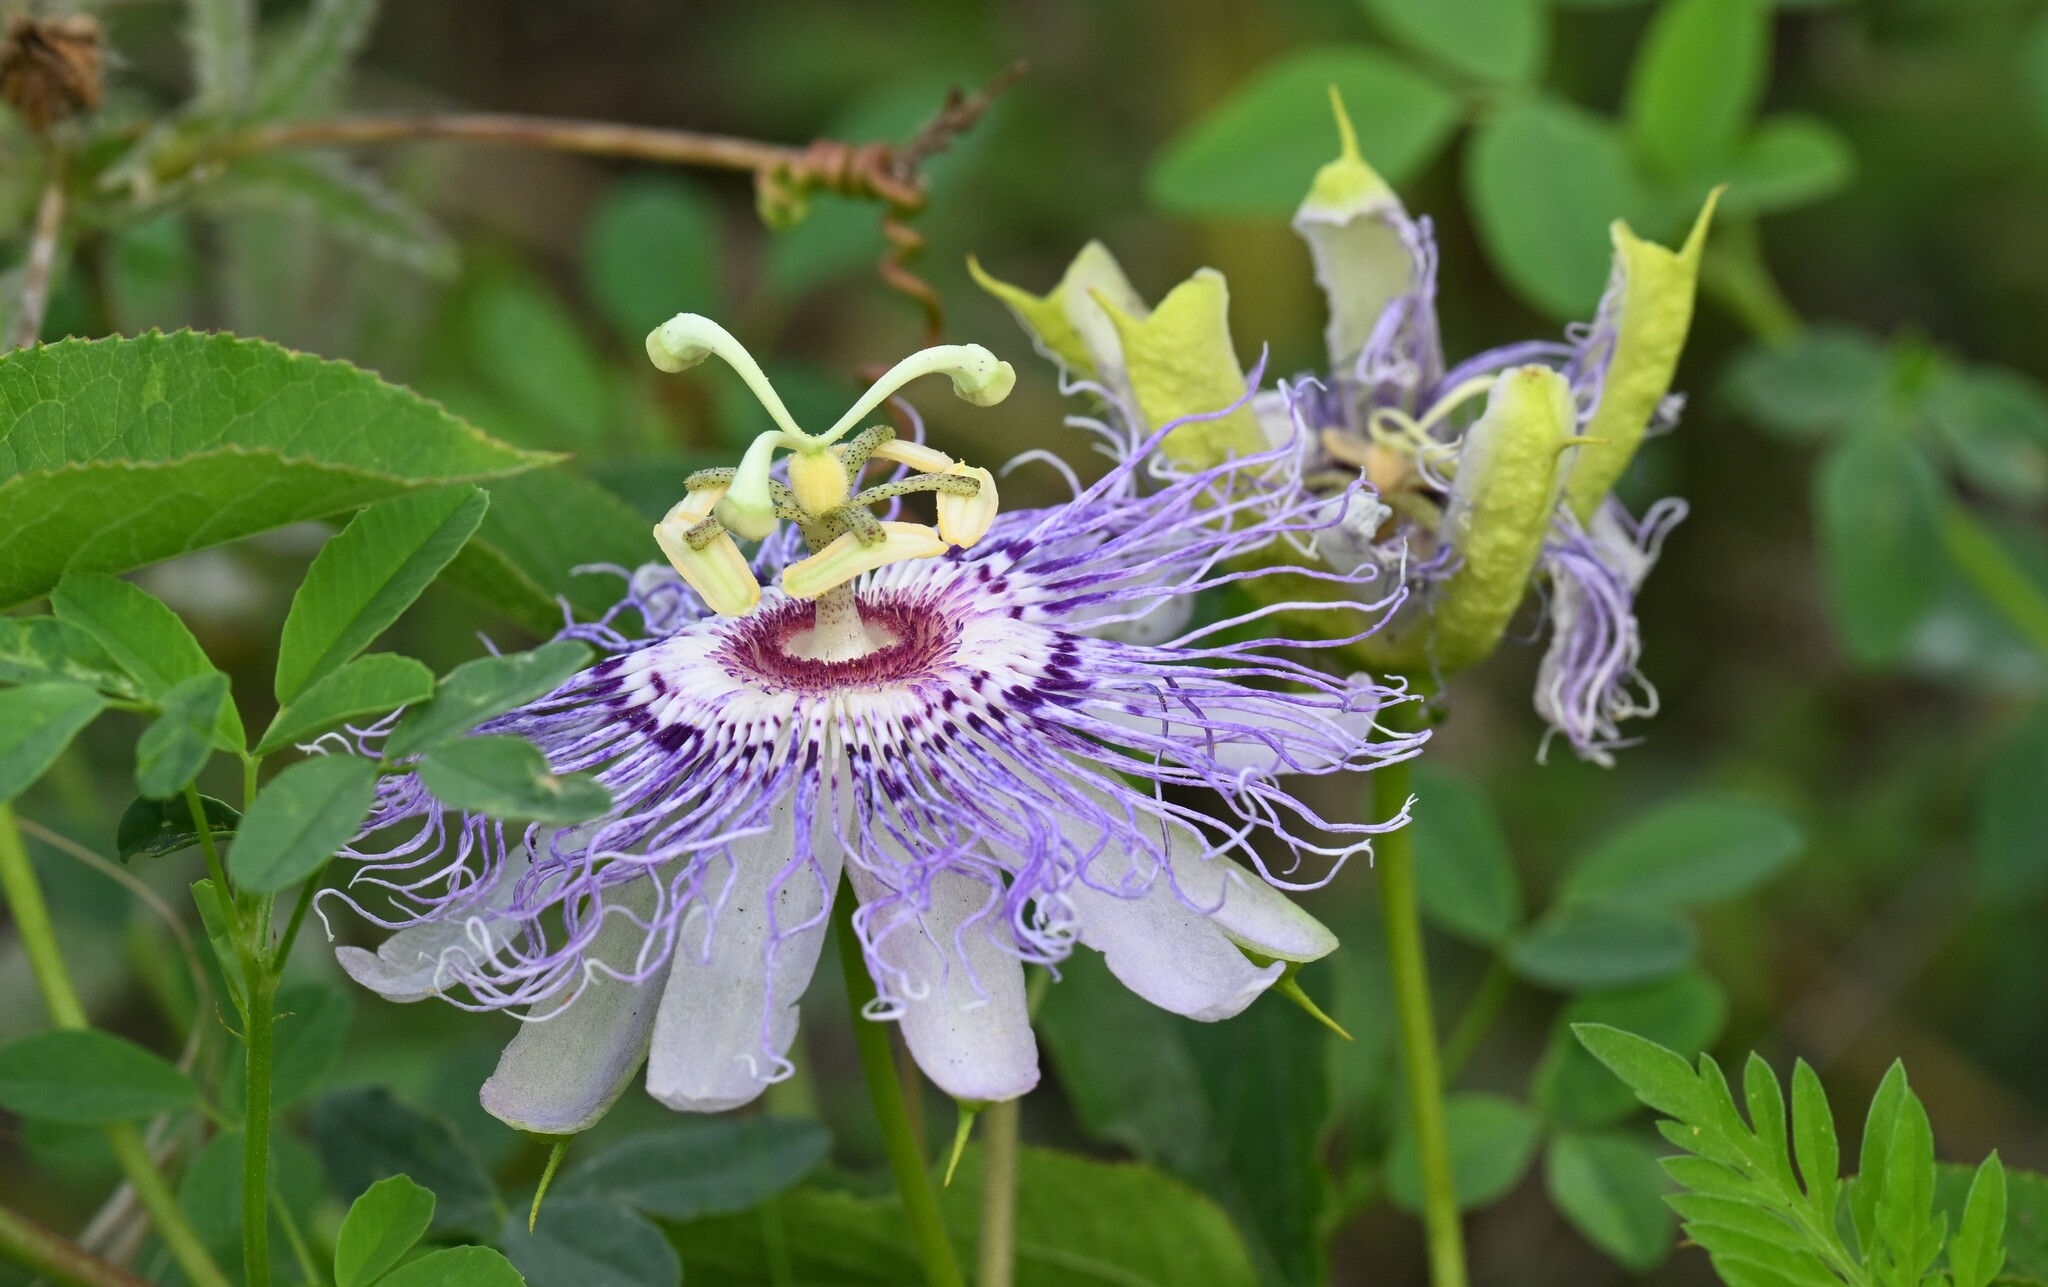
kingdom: Plantae
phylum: Tracheophyta
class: Magnoliopsida
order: Malpighiales
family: Passifloraceae
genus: Passiflora
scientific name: Passiflora incarnata
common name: Apricot-vine
